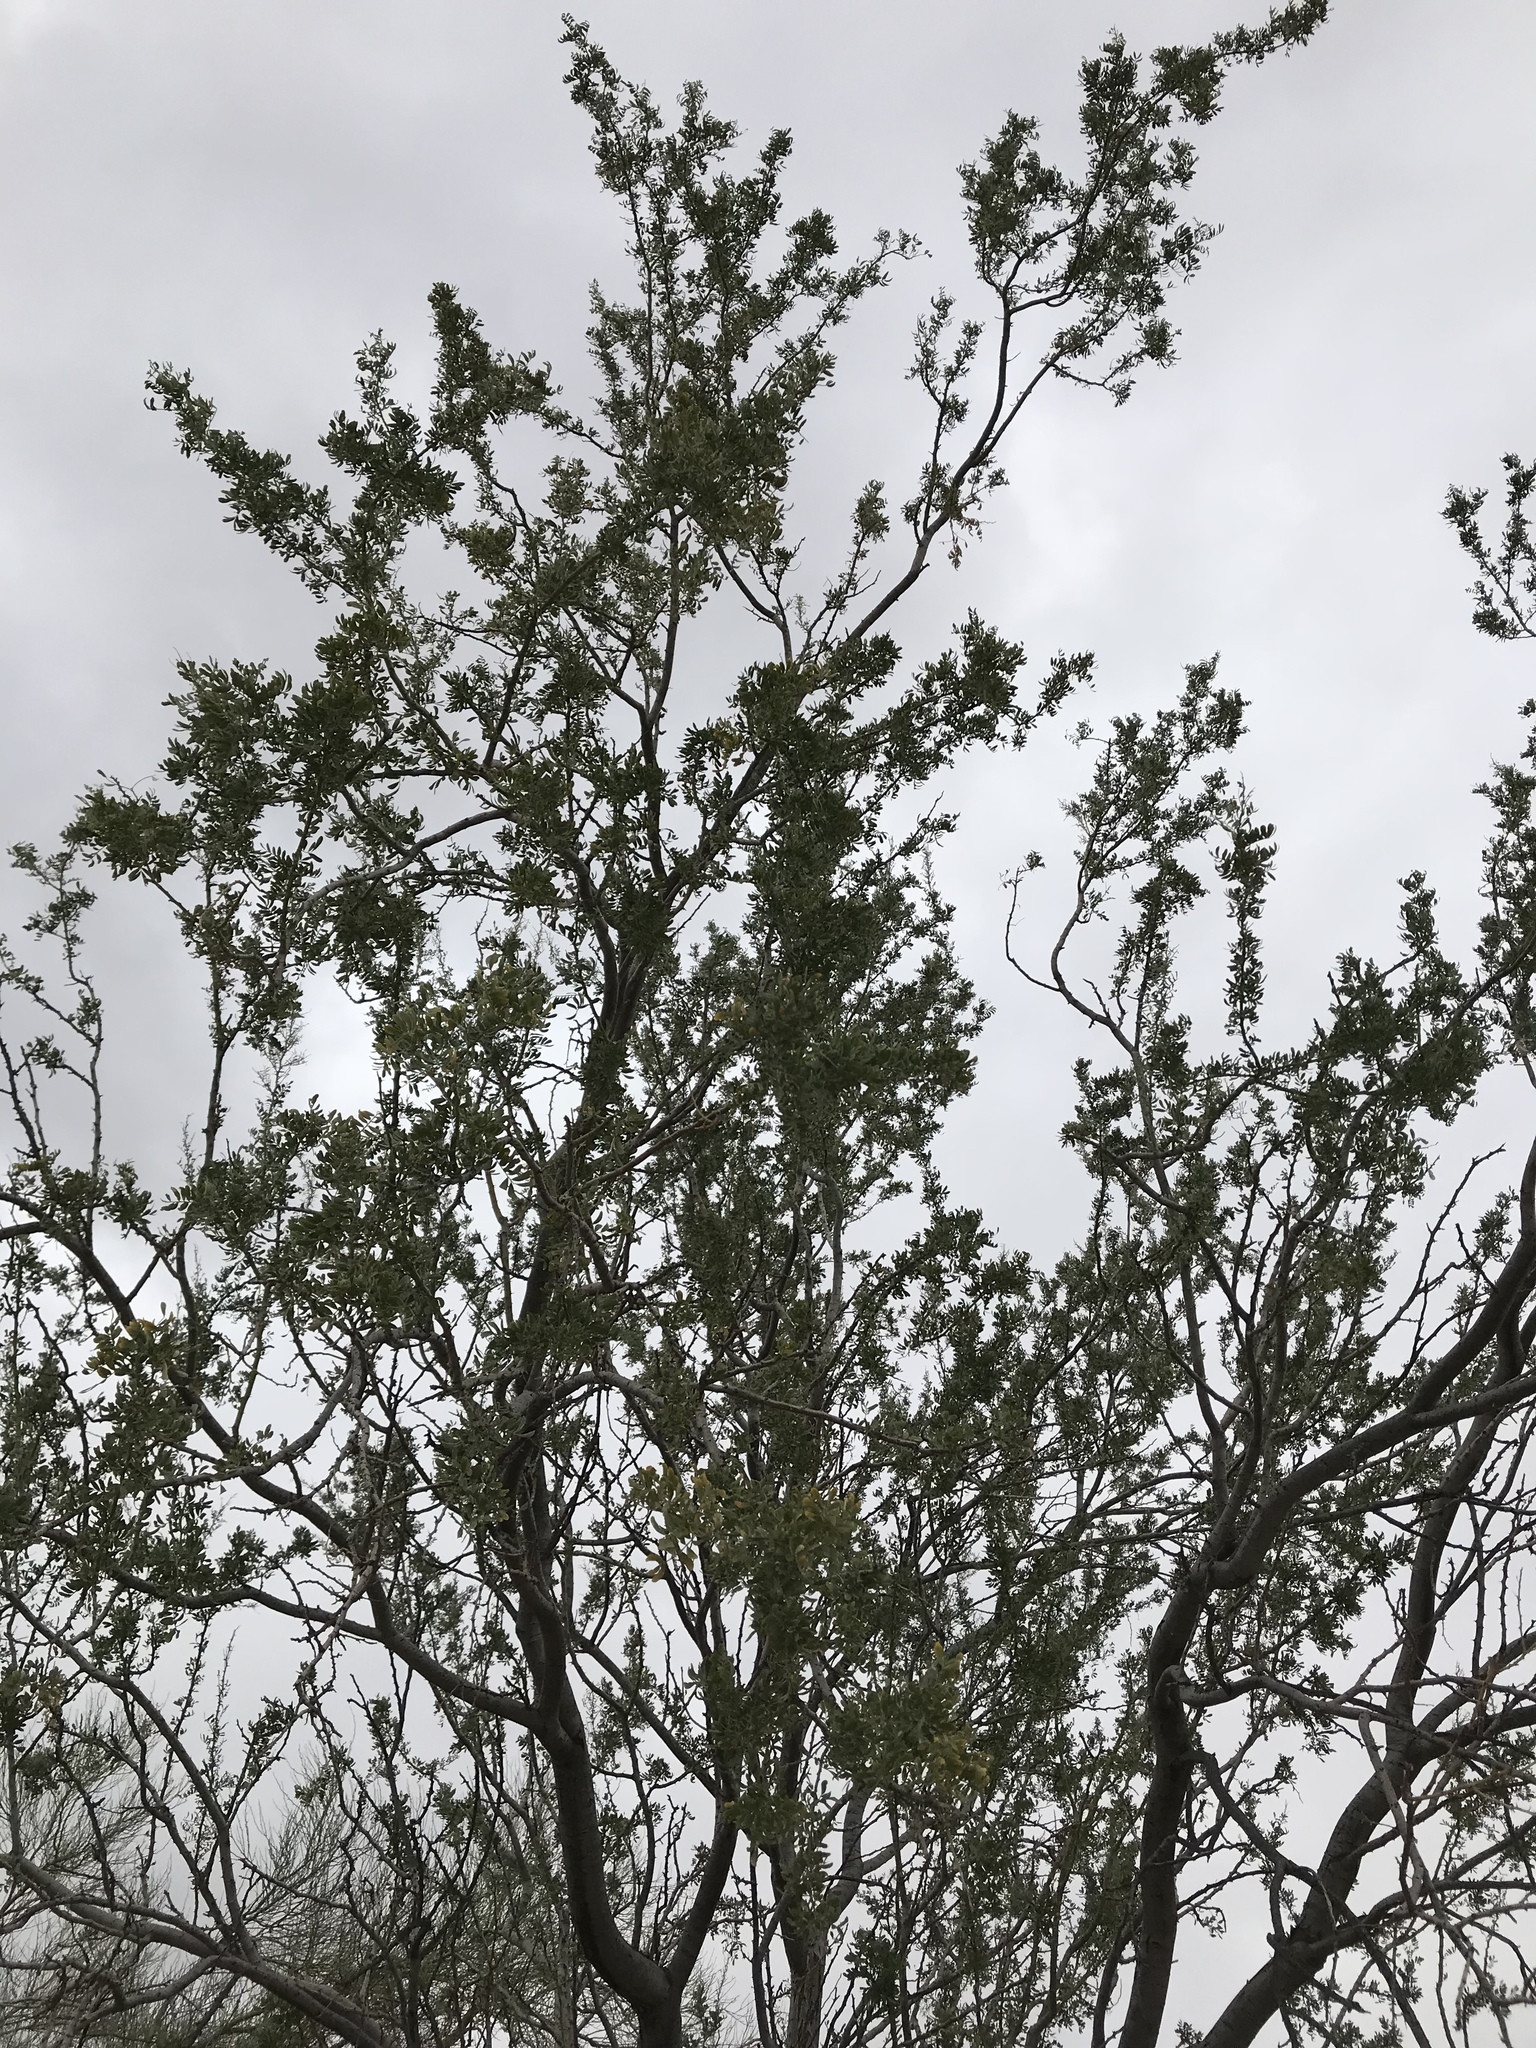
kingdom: Plantae
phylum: Tracheophyta
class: Magnoliopsida
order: Fabales
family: Fabaceae
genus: Olneya
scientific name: Olneya tesota
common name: Desert ironwood
